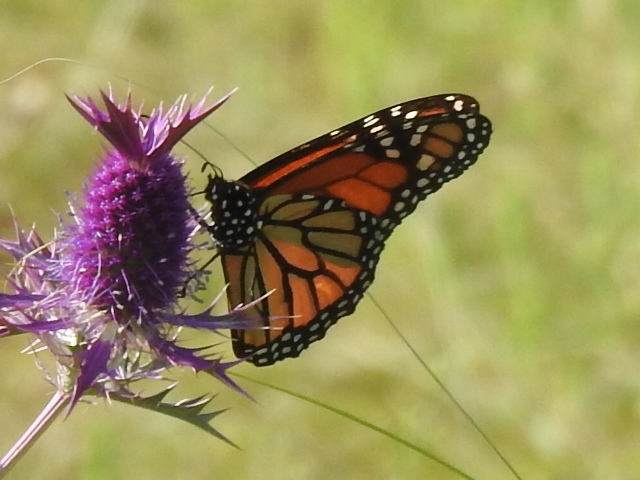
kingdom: Animalia
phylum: Arthropoda
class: Insecta
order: Lepidoptera
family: Nymphalidae
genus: Danaus
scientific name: Danaus plexippus
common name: Monarch
